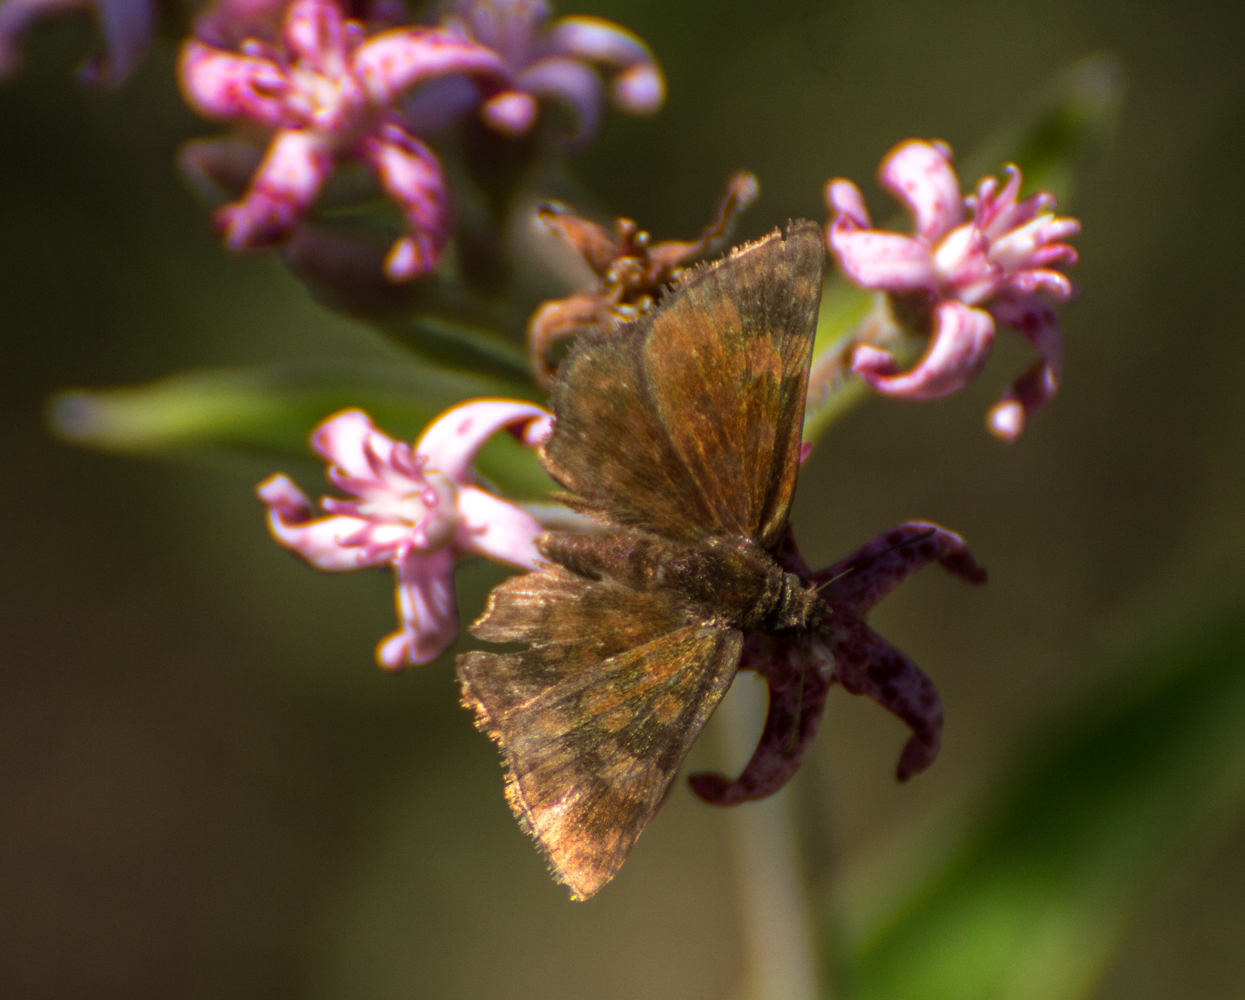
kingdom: Animalia
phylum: Arthropoda
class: Insecta
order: Lepidoptera
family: Hesperiidae
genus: Viola
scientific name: Viola minor
